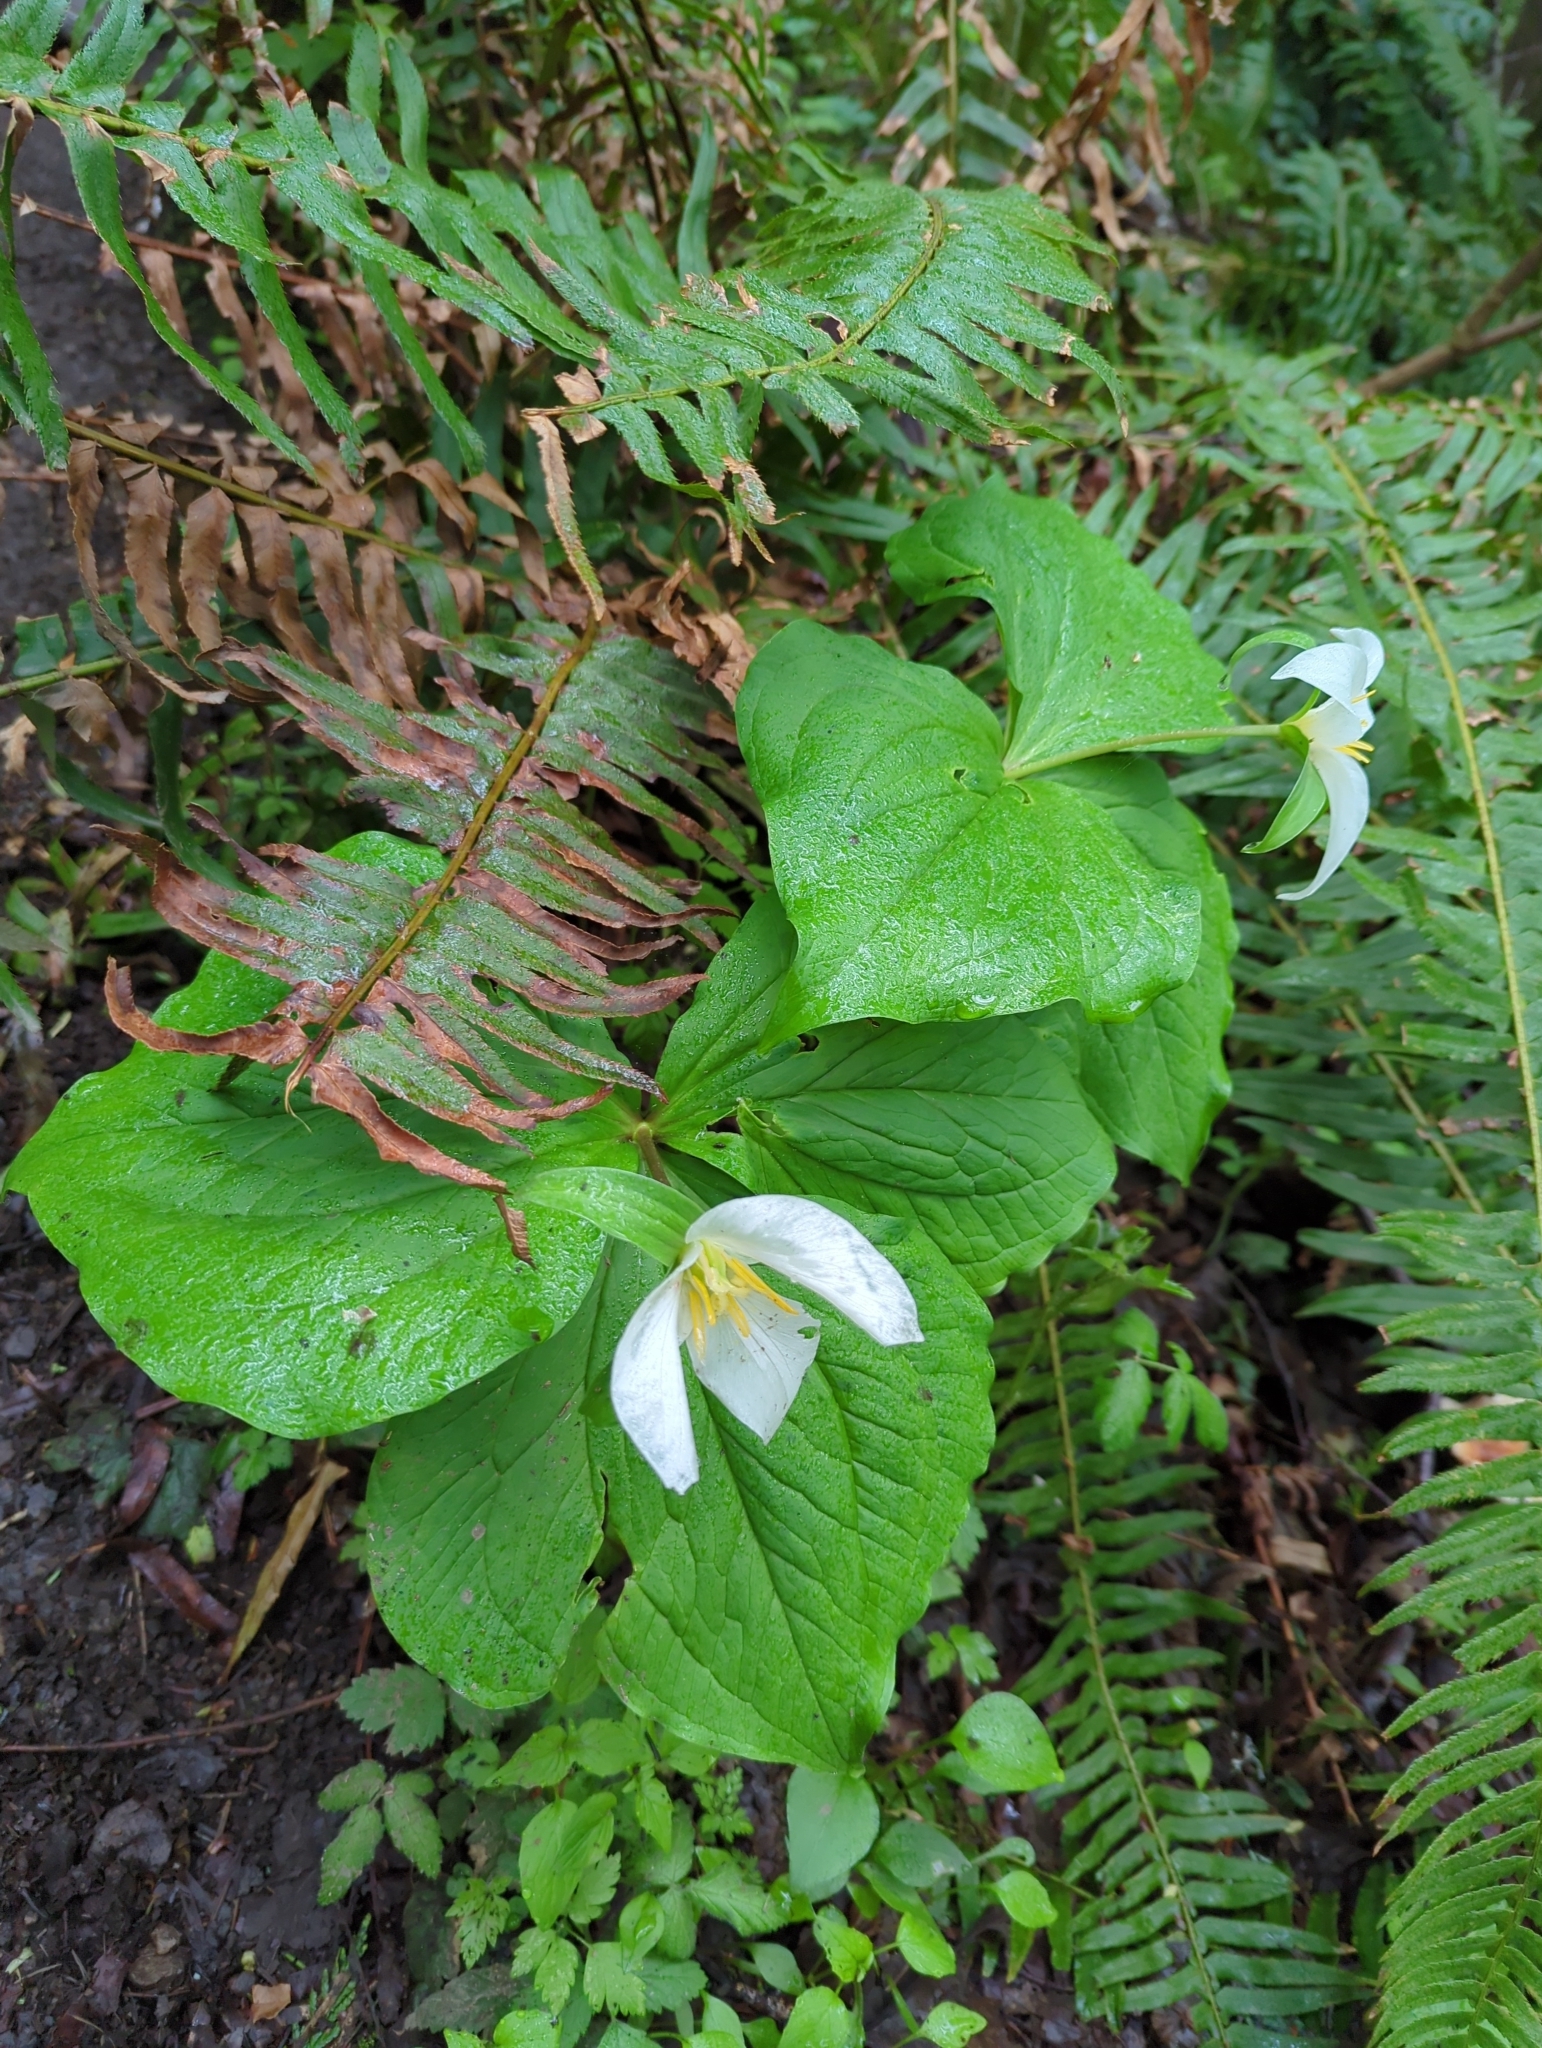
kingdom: Plantae
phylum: Tracheophyta
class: Liliopsida
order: Liliales
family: Melanthiaceae
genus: Trillium
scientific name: Trillium ovatum
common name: Pacific trillium
